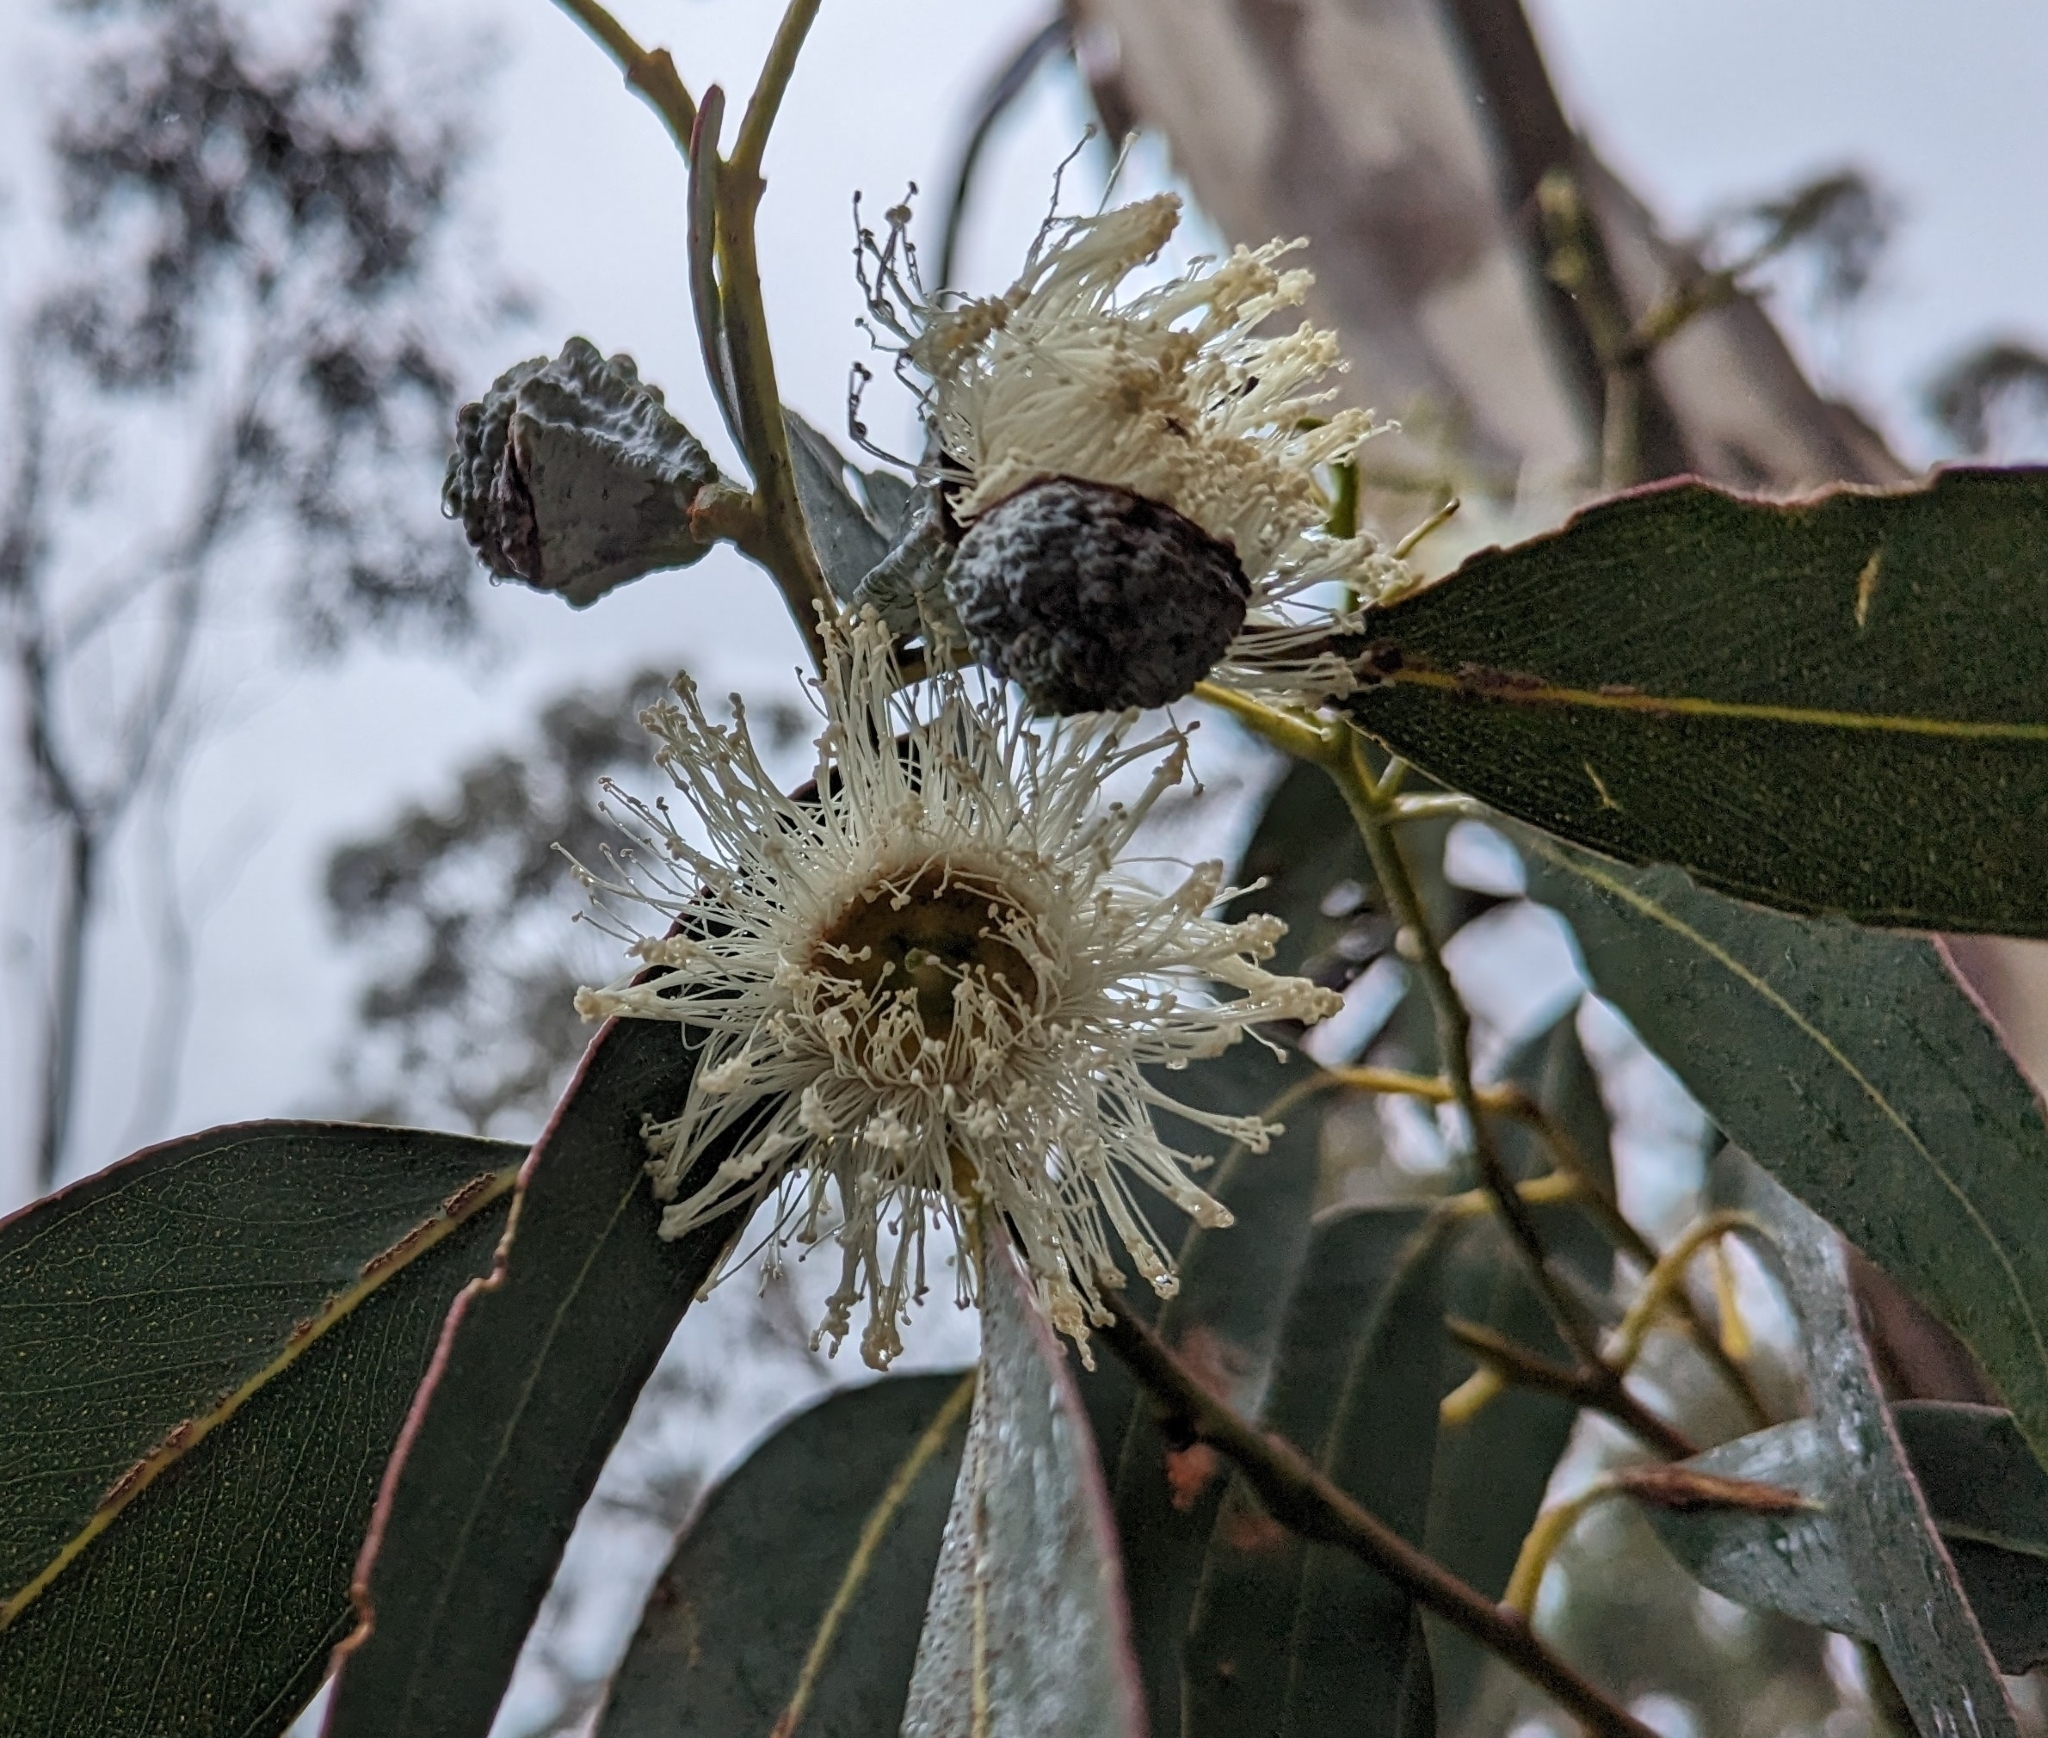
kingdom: Plantae
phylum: Tracheophyta
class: Magnoliopsida
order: Myrtales
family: Myrtaceae
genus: Eucalyptus
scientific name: Eucalyptus globulus
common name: Southern blue-gum
